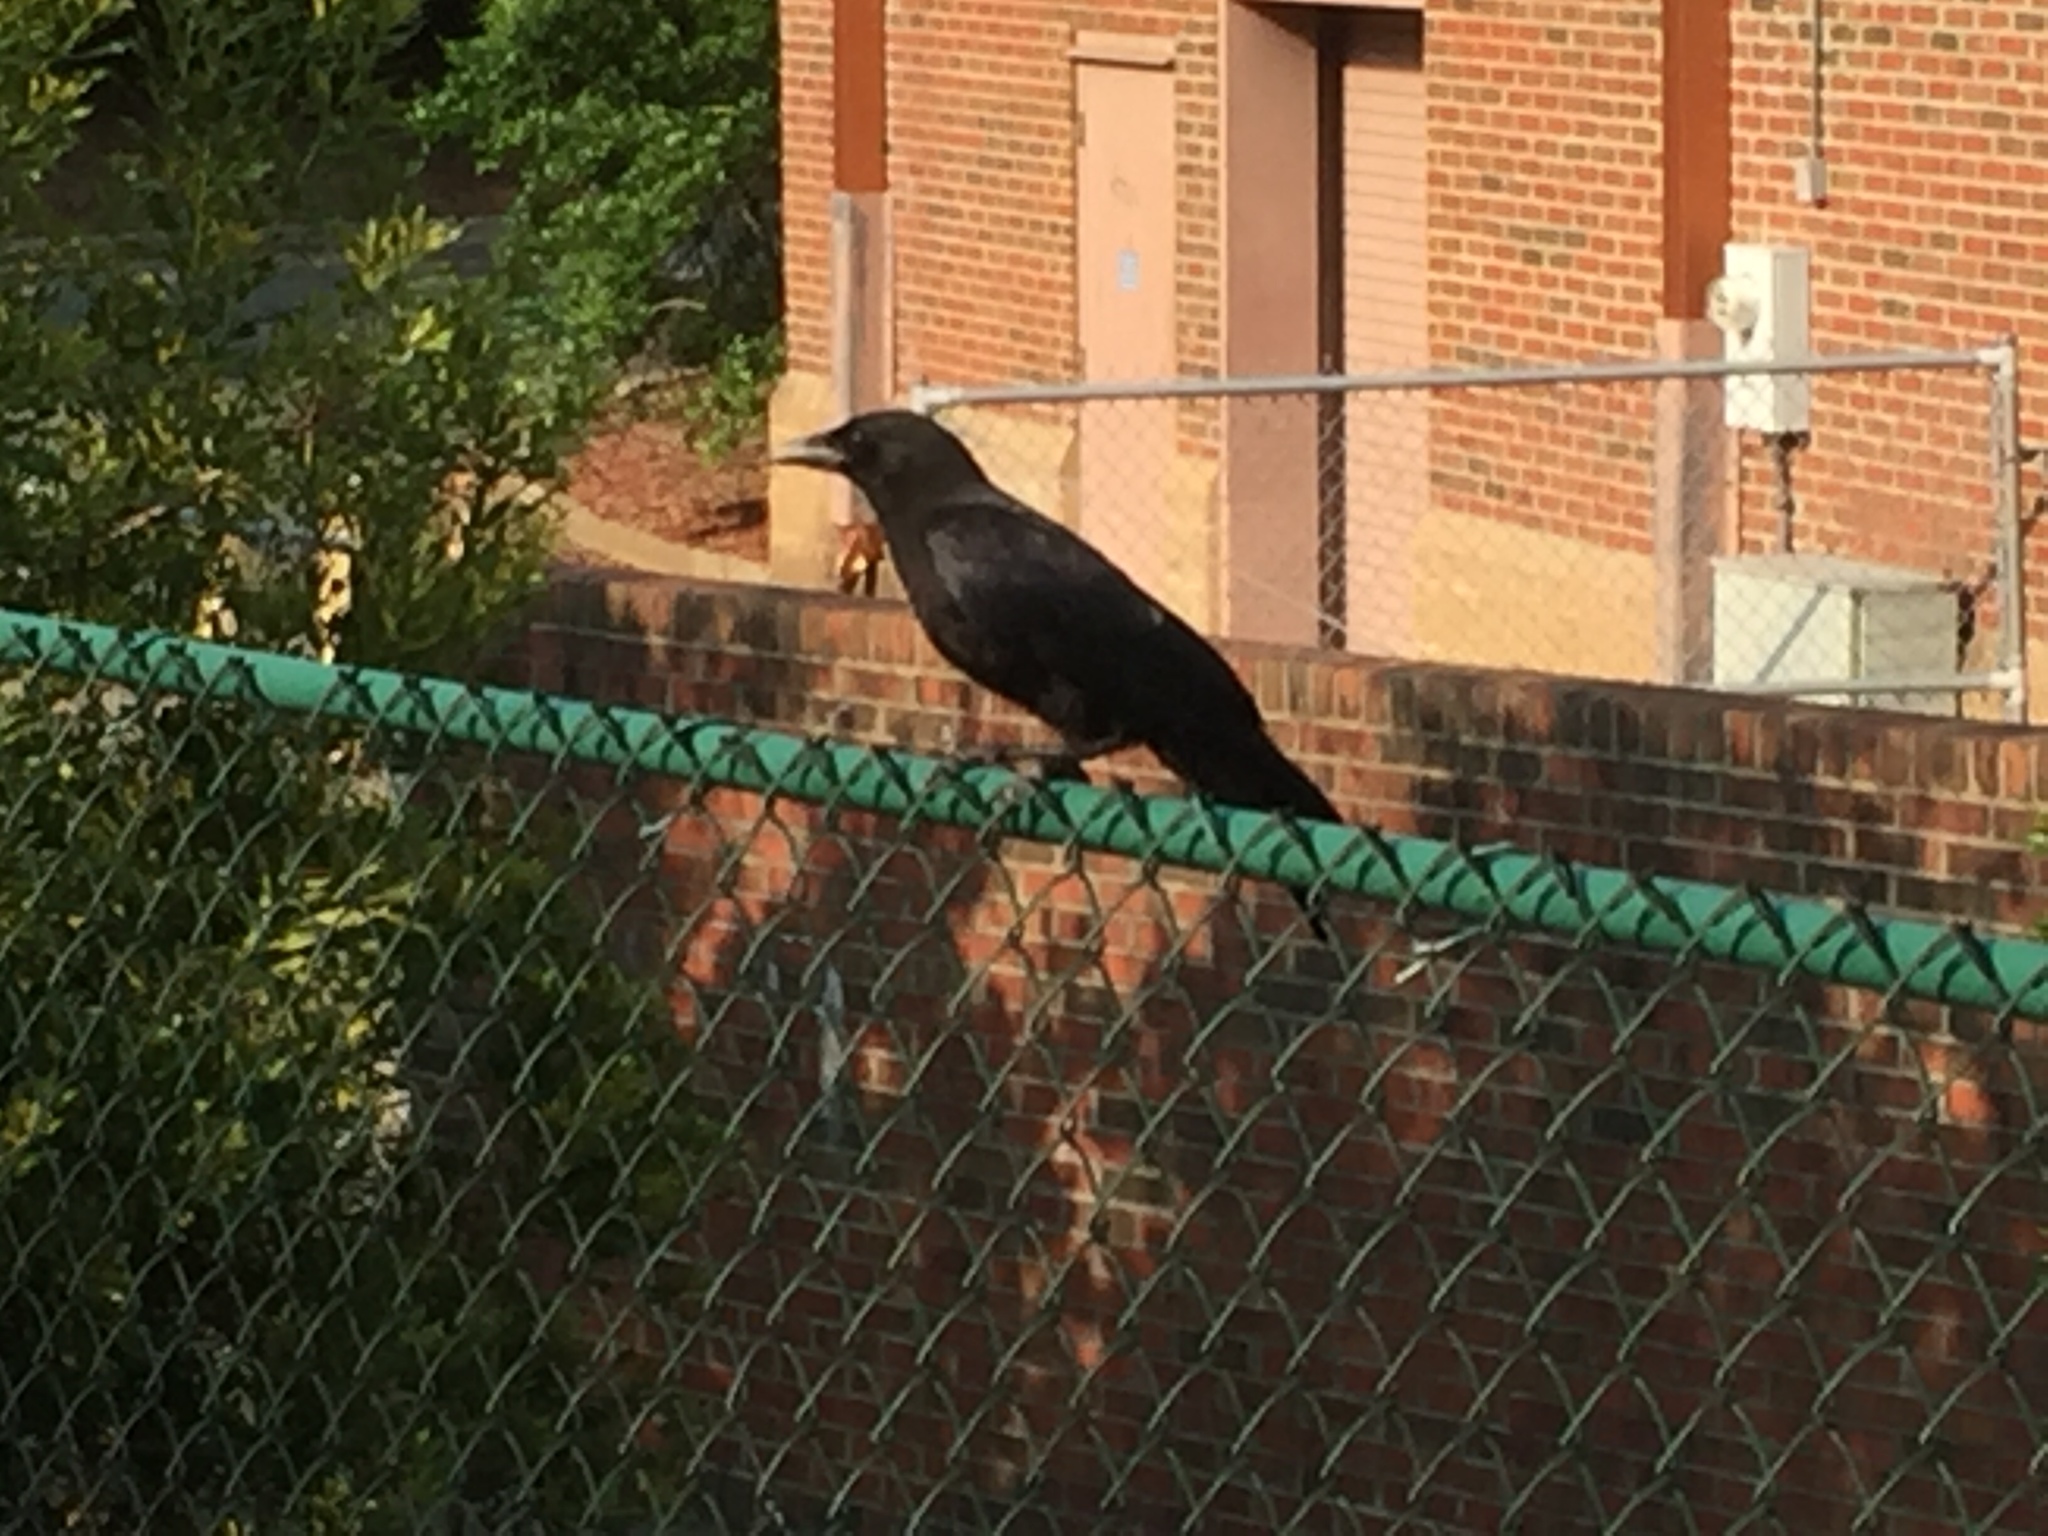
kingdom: Animalia
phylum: Chordata
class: Aves
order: Passeriformes
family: Corvidae
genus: Corvus
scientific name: Corvus brachyrhynchos
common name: American crow
